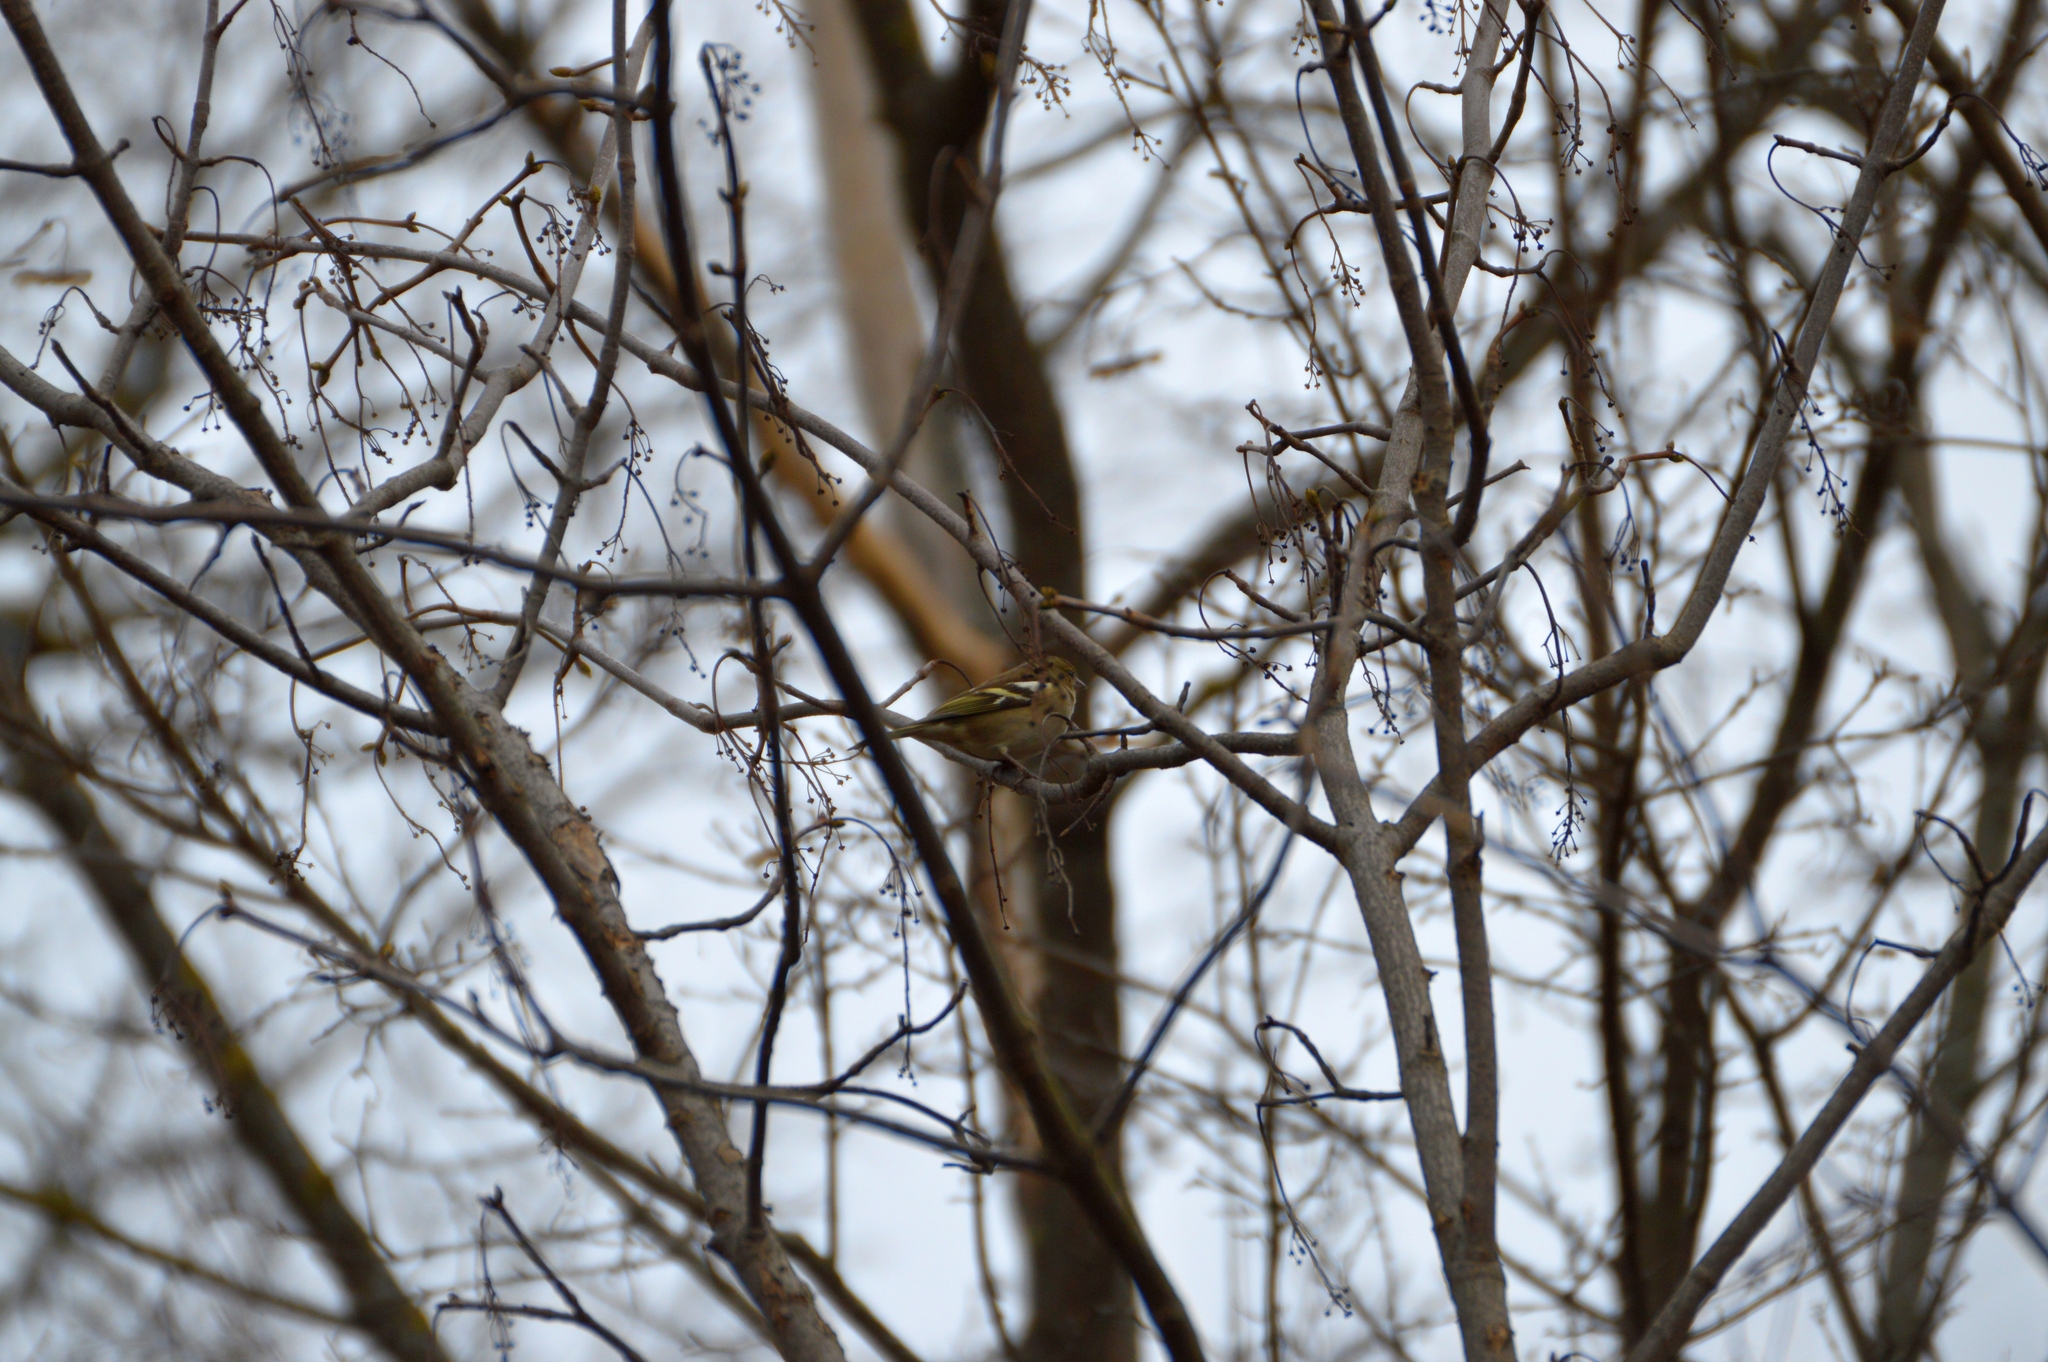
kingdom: Animalia
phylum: Chordata
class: Aves
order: Passeriformes
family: Fringillidae
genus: Fringilla
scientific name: Fringilla coelebs
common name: Common chaffinch
